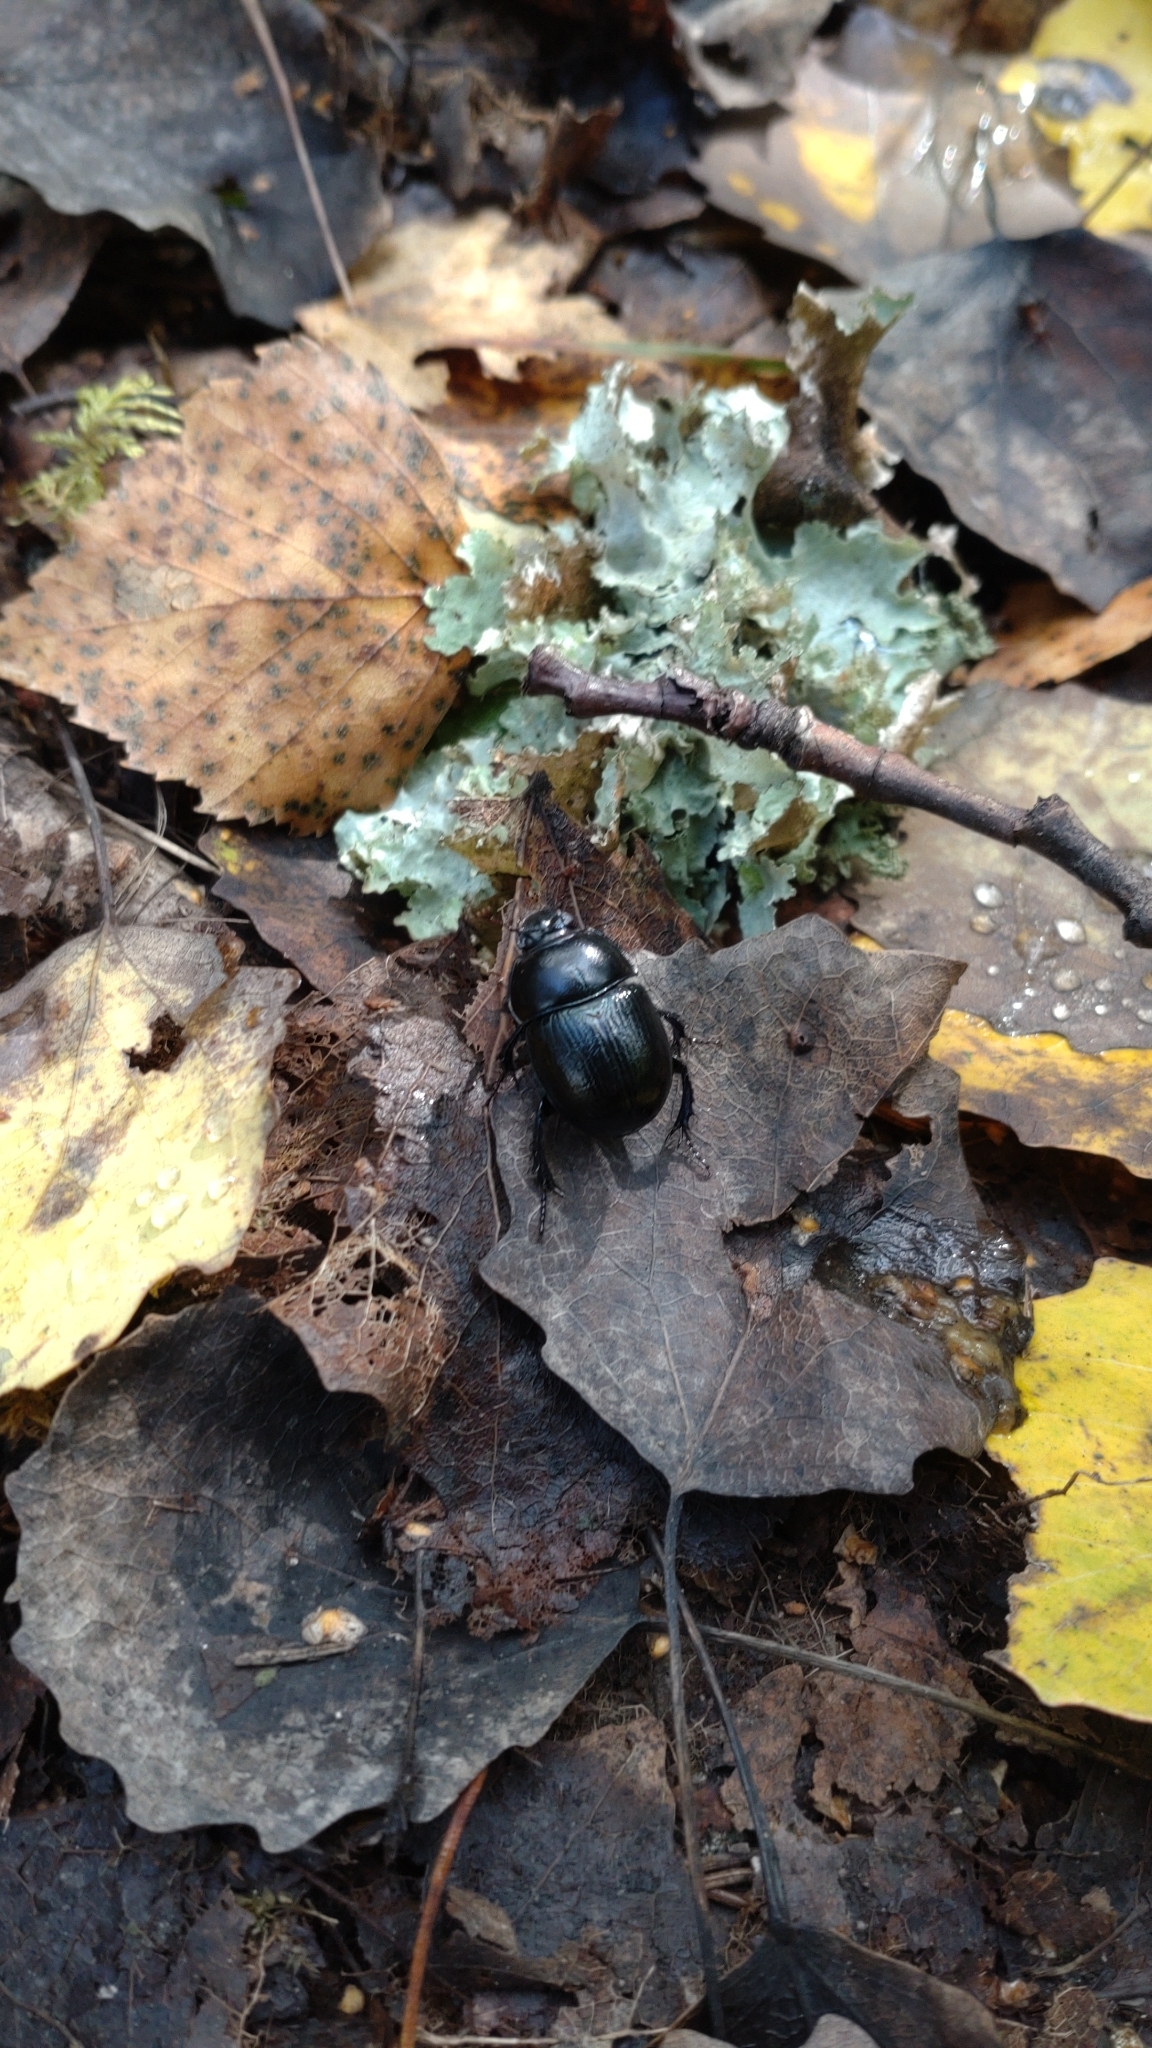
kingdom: Animalia
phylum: Arthropoda
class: Insecta
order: Coleoptera
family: Geotrupidae
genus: Anoplotrupes
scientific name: Anoplotrupes stercorosus
